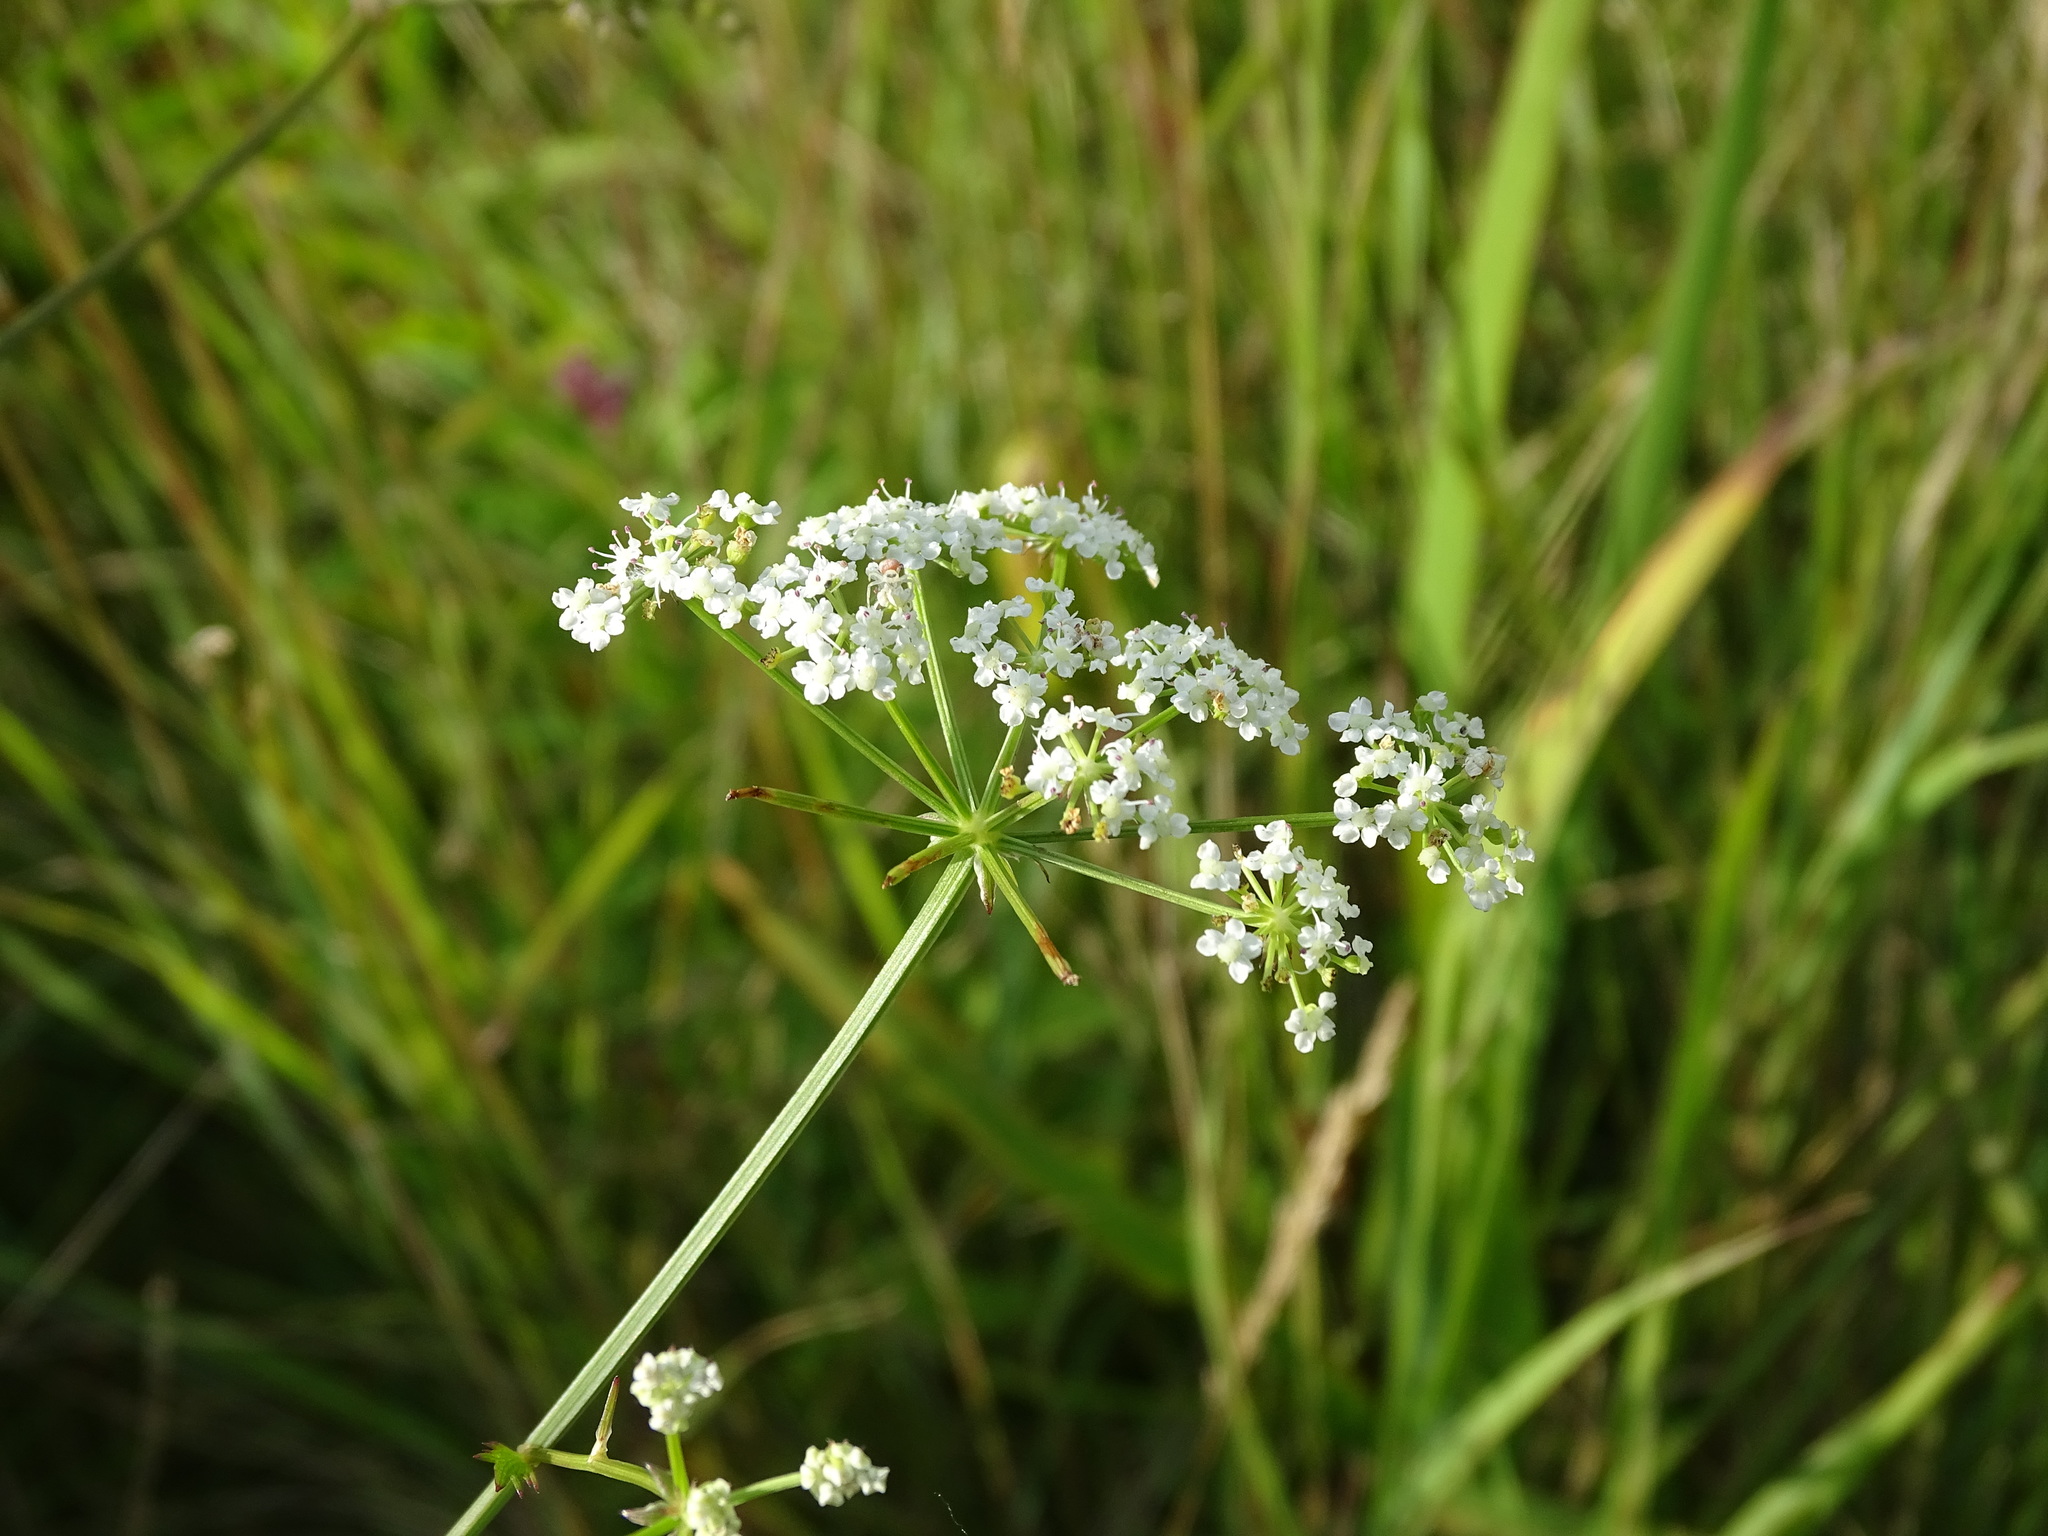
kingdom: Plantae
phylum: Tracheophyta
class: Magnoliopsida
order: Apiales
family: Apiaceae
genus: Sium
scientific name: Sium suave
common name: Hemlock water-parsnip
